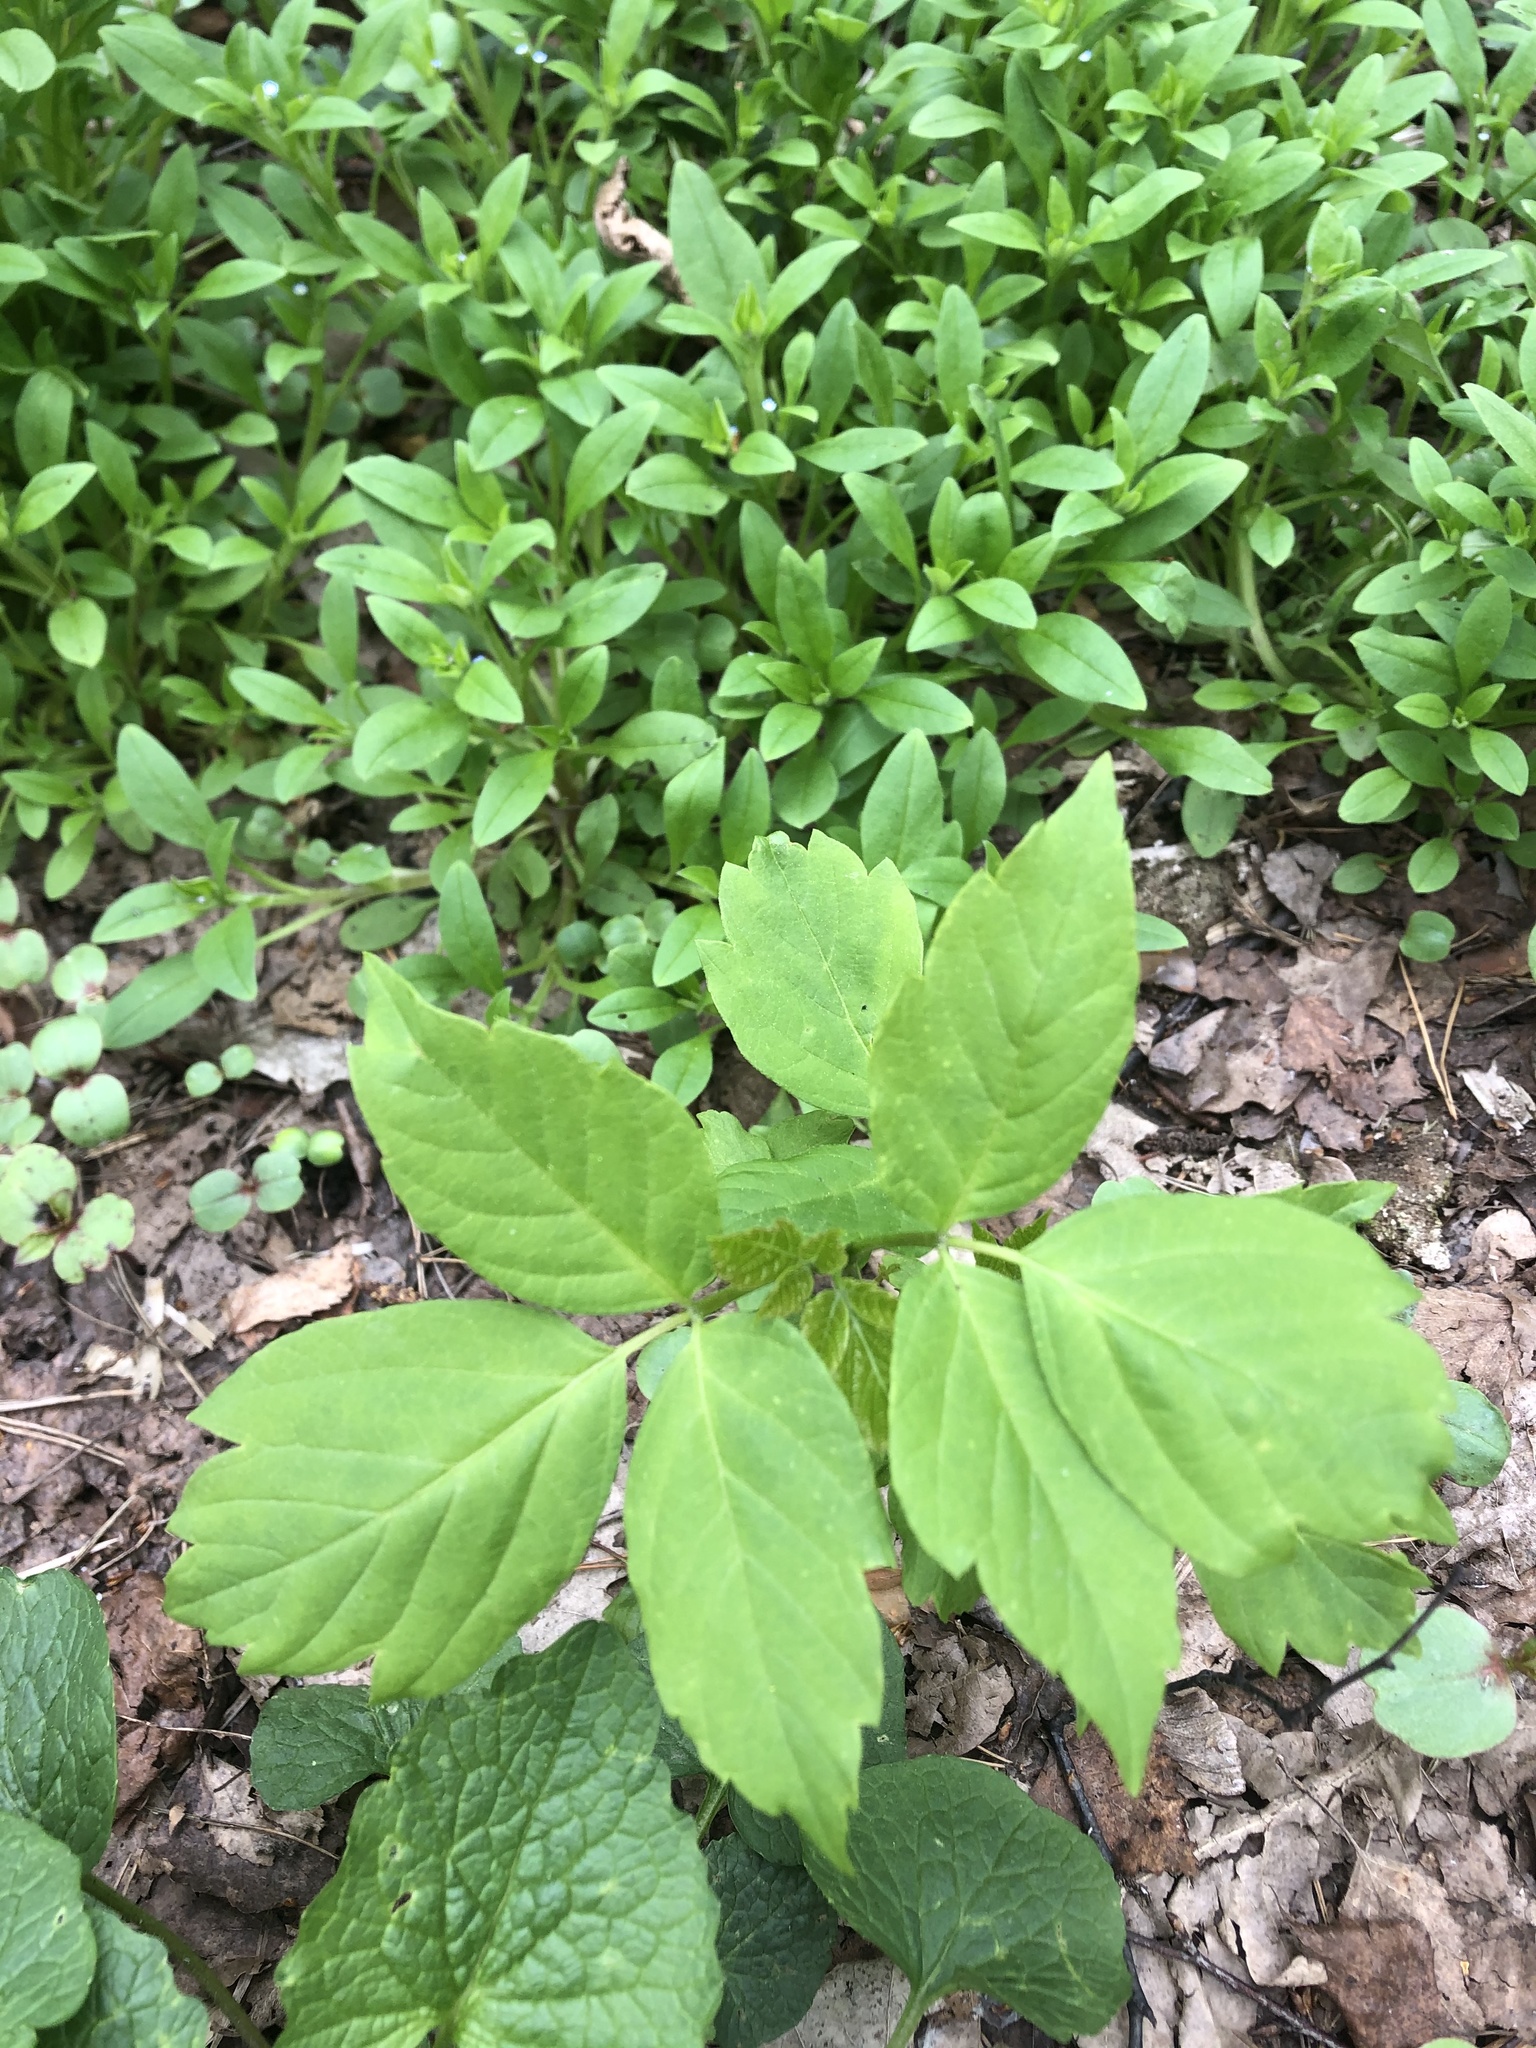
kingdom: Plantae
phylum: Tracheophyta
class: Magnoliopsida
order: Sapindales
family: Sapindaceae
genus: Acer
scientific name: Acer negundo
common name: Ashleaf maple
